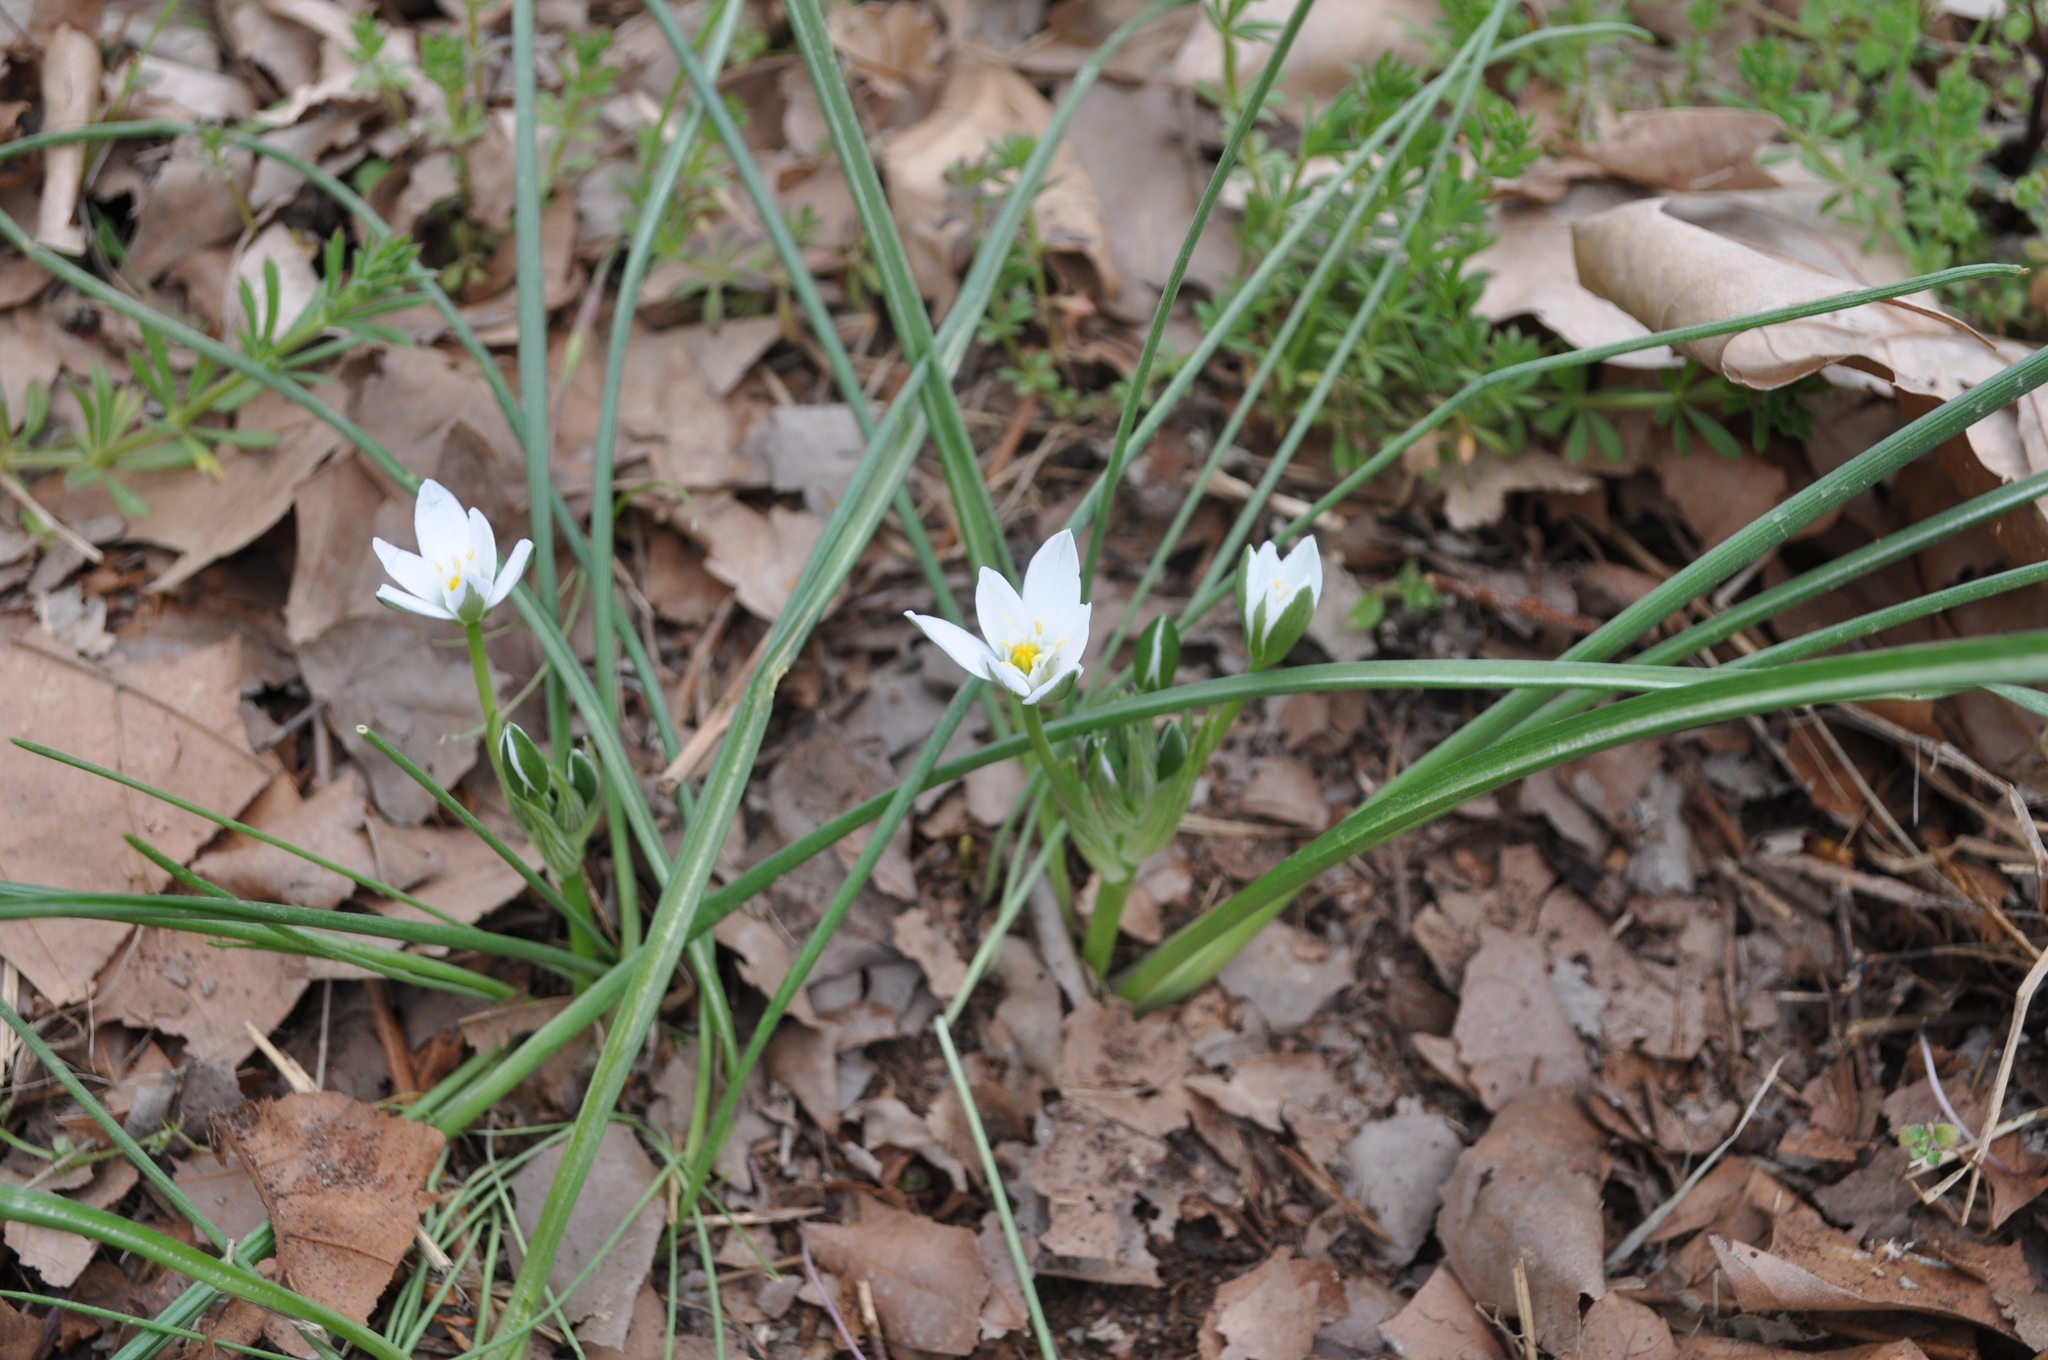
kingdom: Plantae
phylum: Tracheophyta
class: Liliopsida
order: Asparagales
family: Asparagaceae
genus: Ornithogalum
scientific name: Ornithogalum umbellatum
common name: Garden star-of-bethlehem
